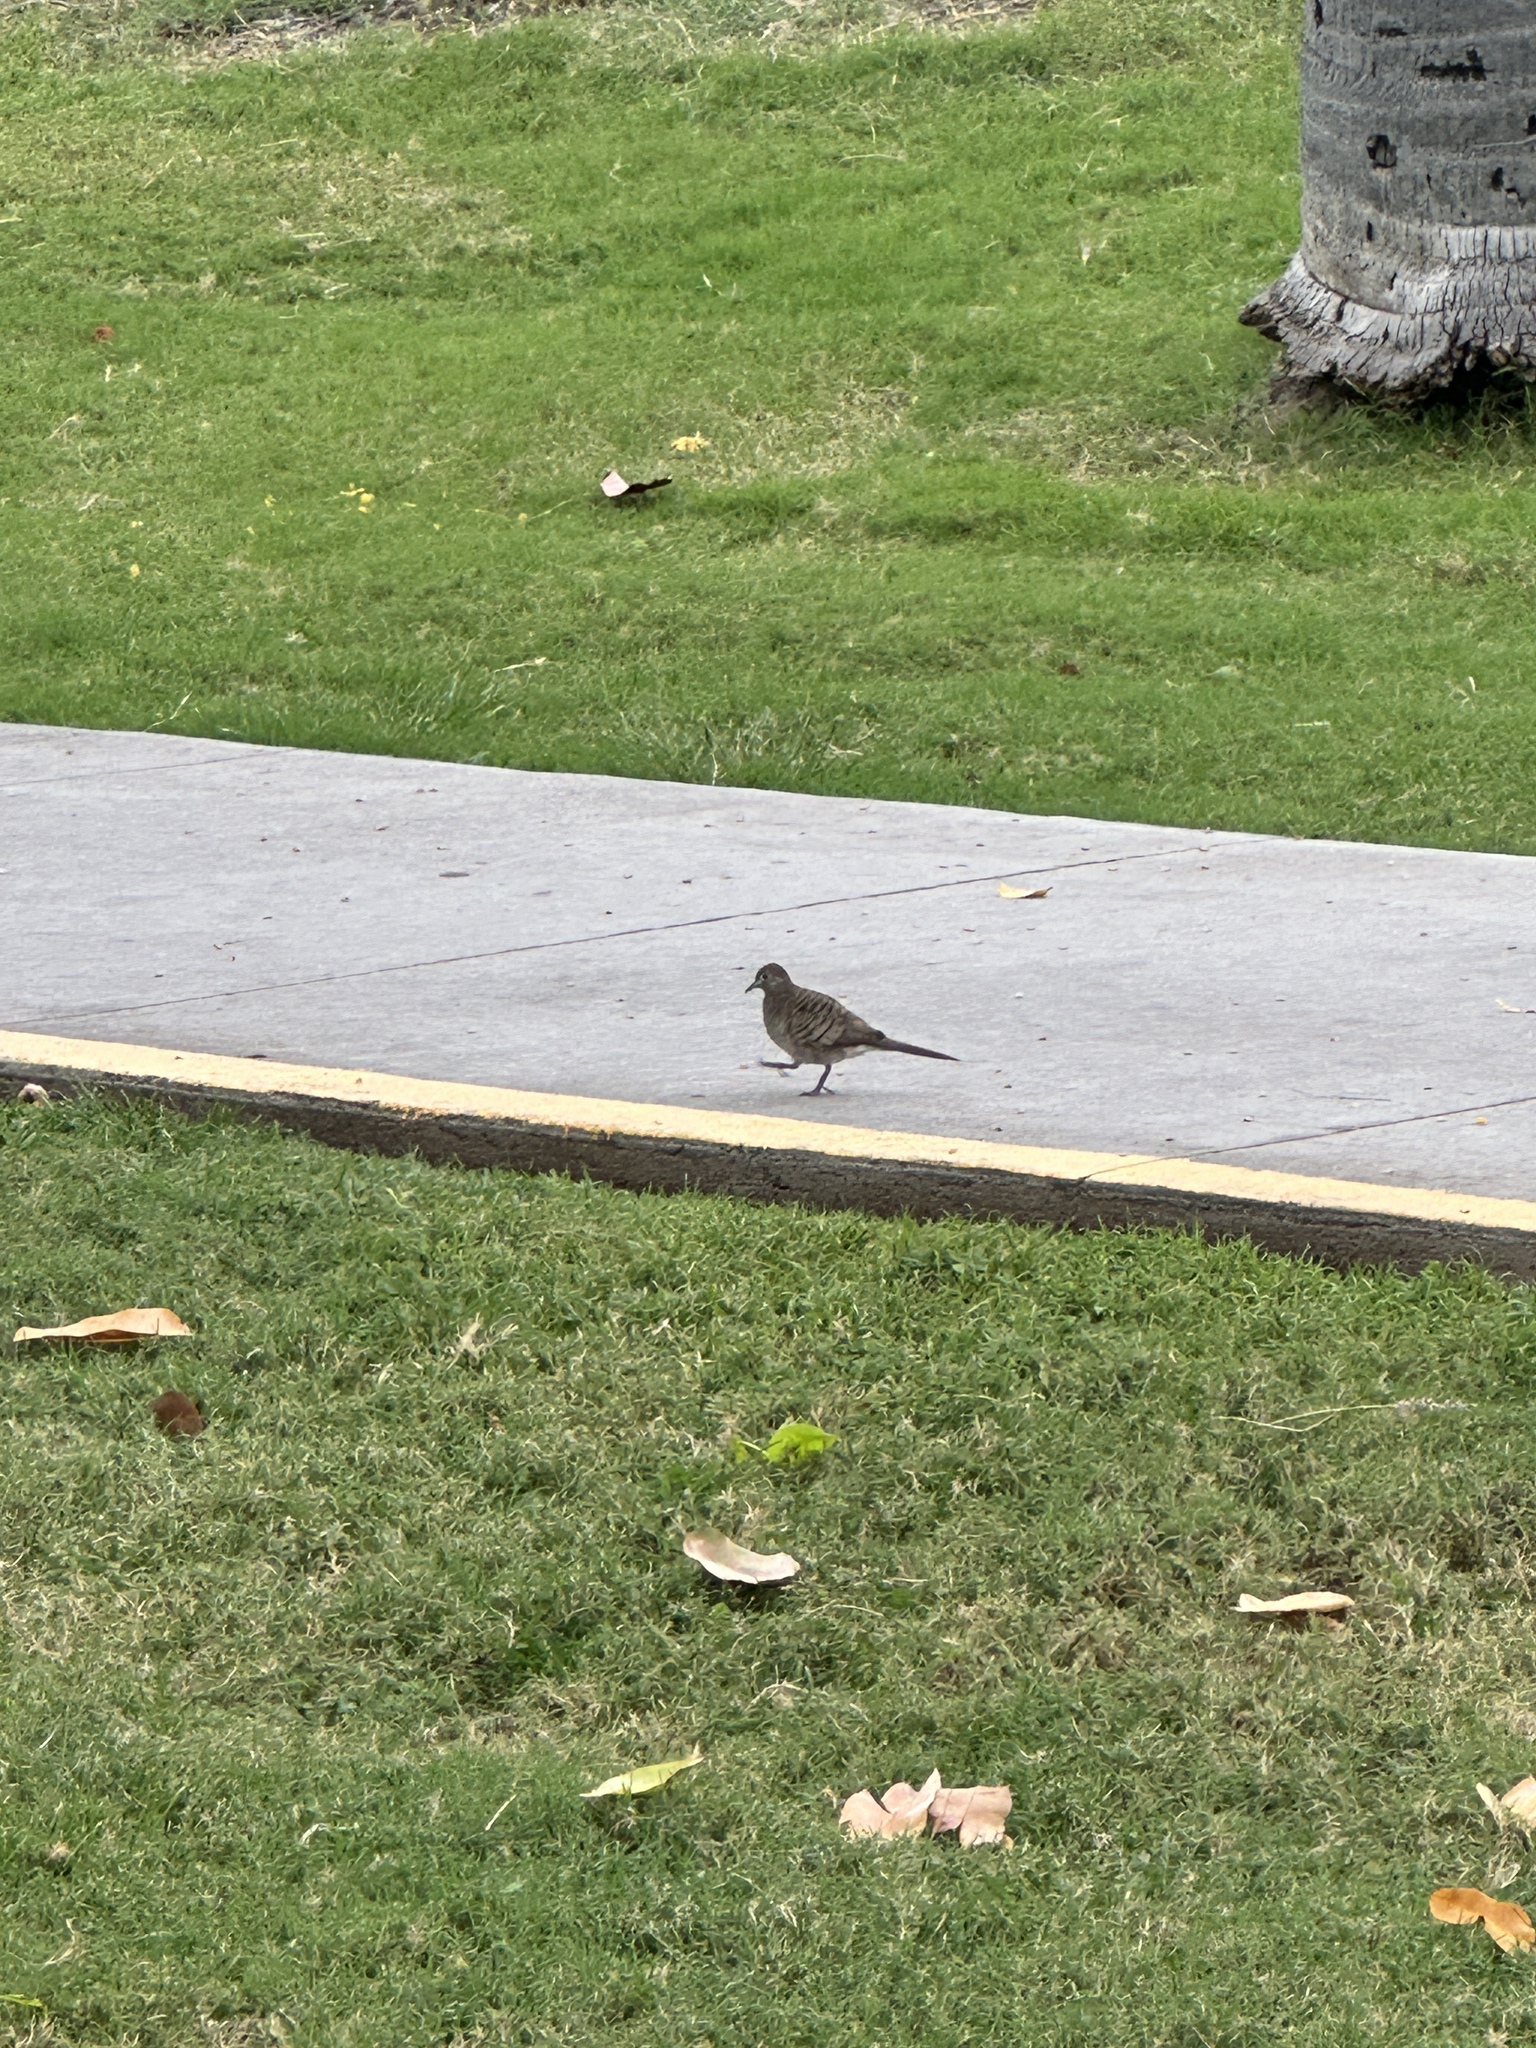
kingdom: Animalia
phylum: Chordata
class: Aves
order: Columbiformes
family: Columbidae
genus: Geopelia
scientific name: Geopelia striata
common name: Zebra dove
